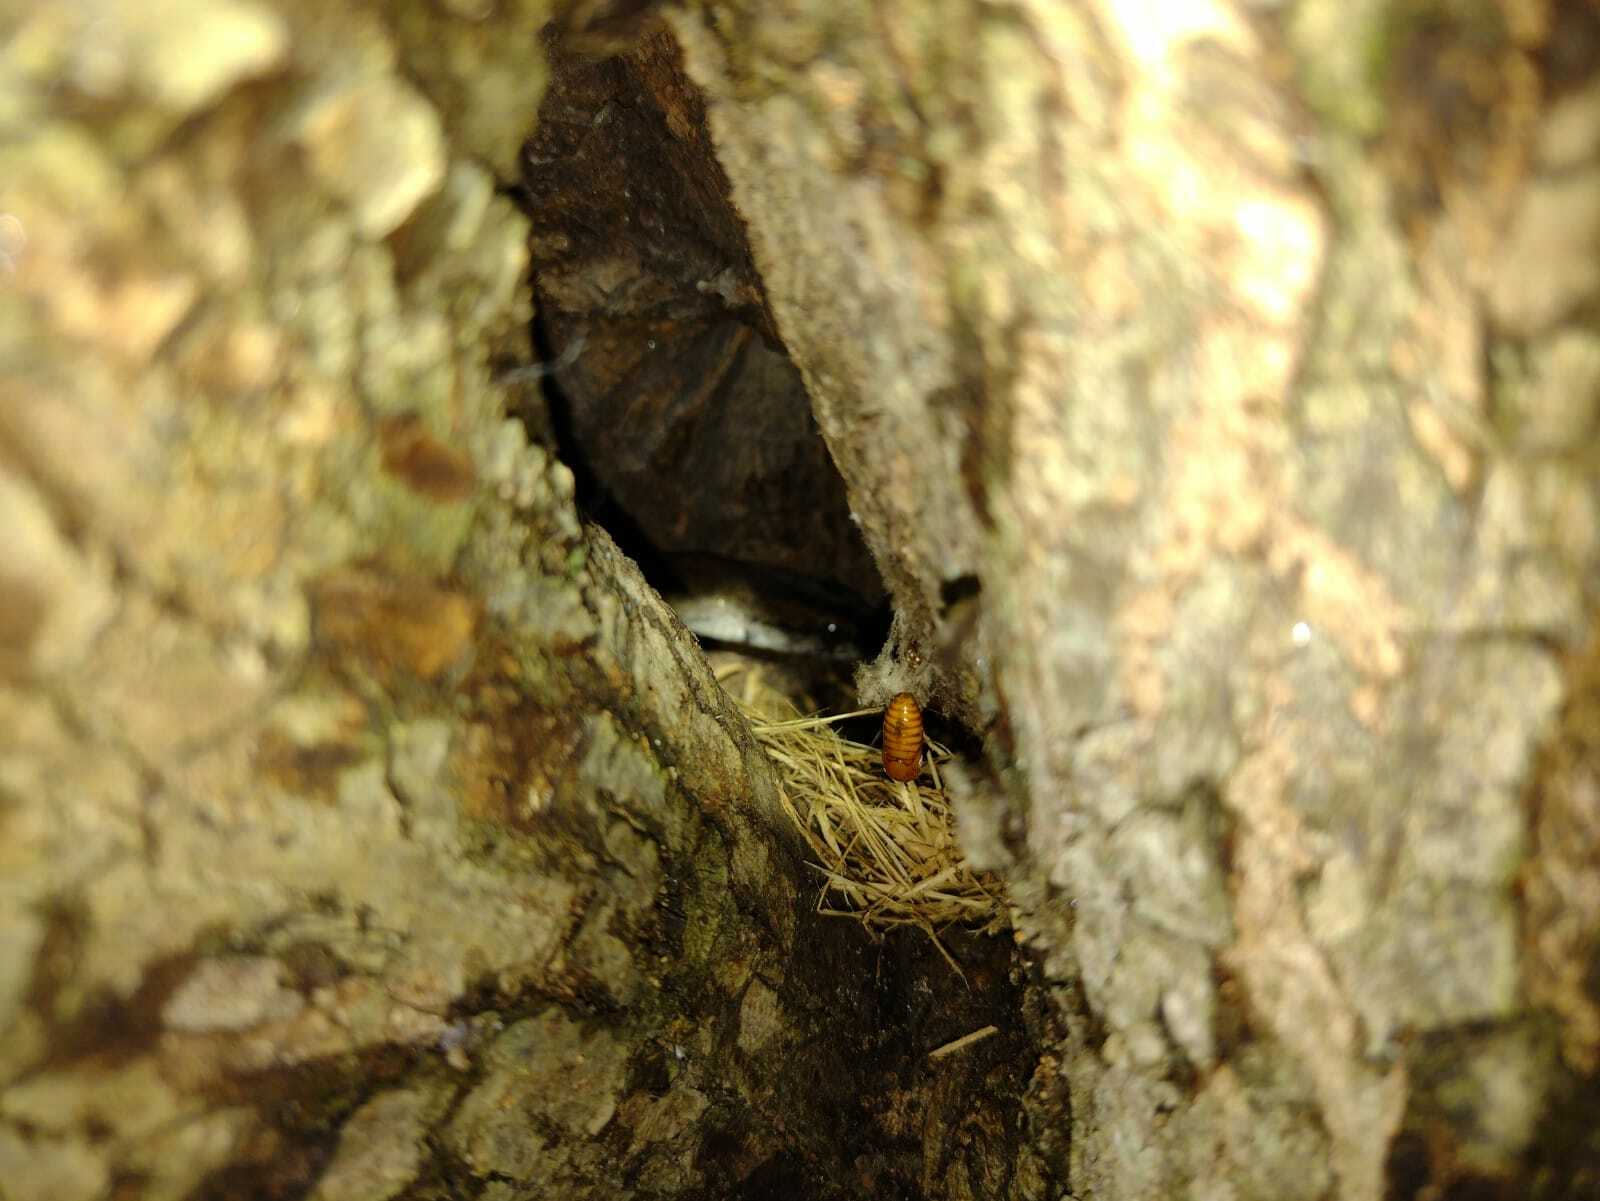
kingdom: Animalia
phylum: Chordata
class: Squamata
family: Colubridae
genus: Mastigodryas
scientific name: Mastigodryas melanolomus
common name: Salmon-bellied racer
